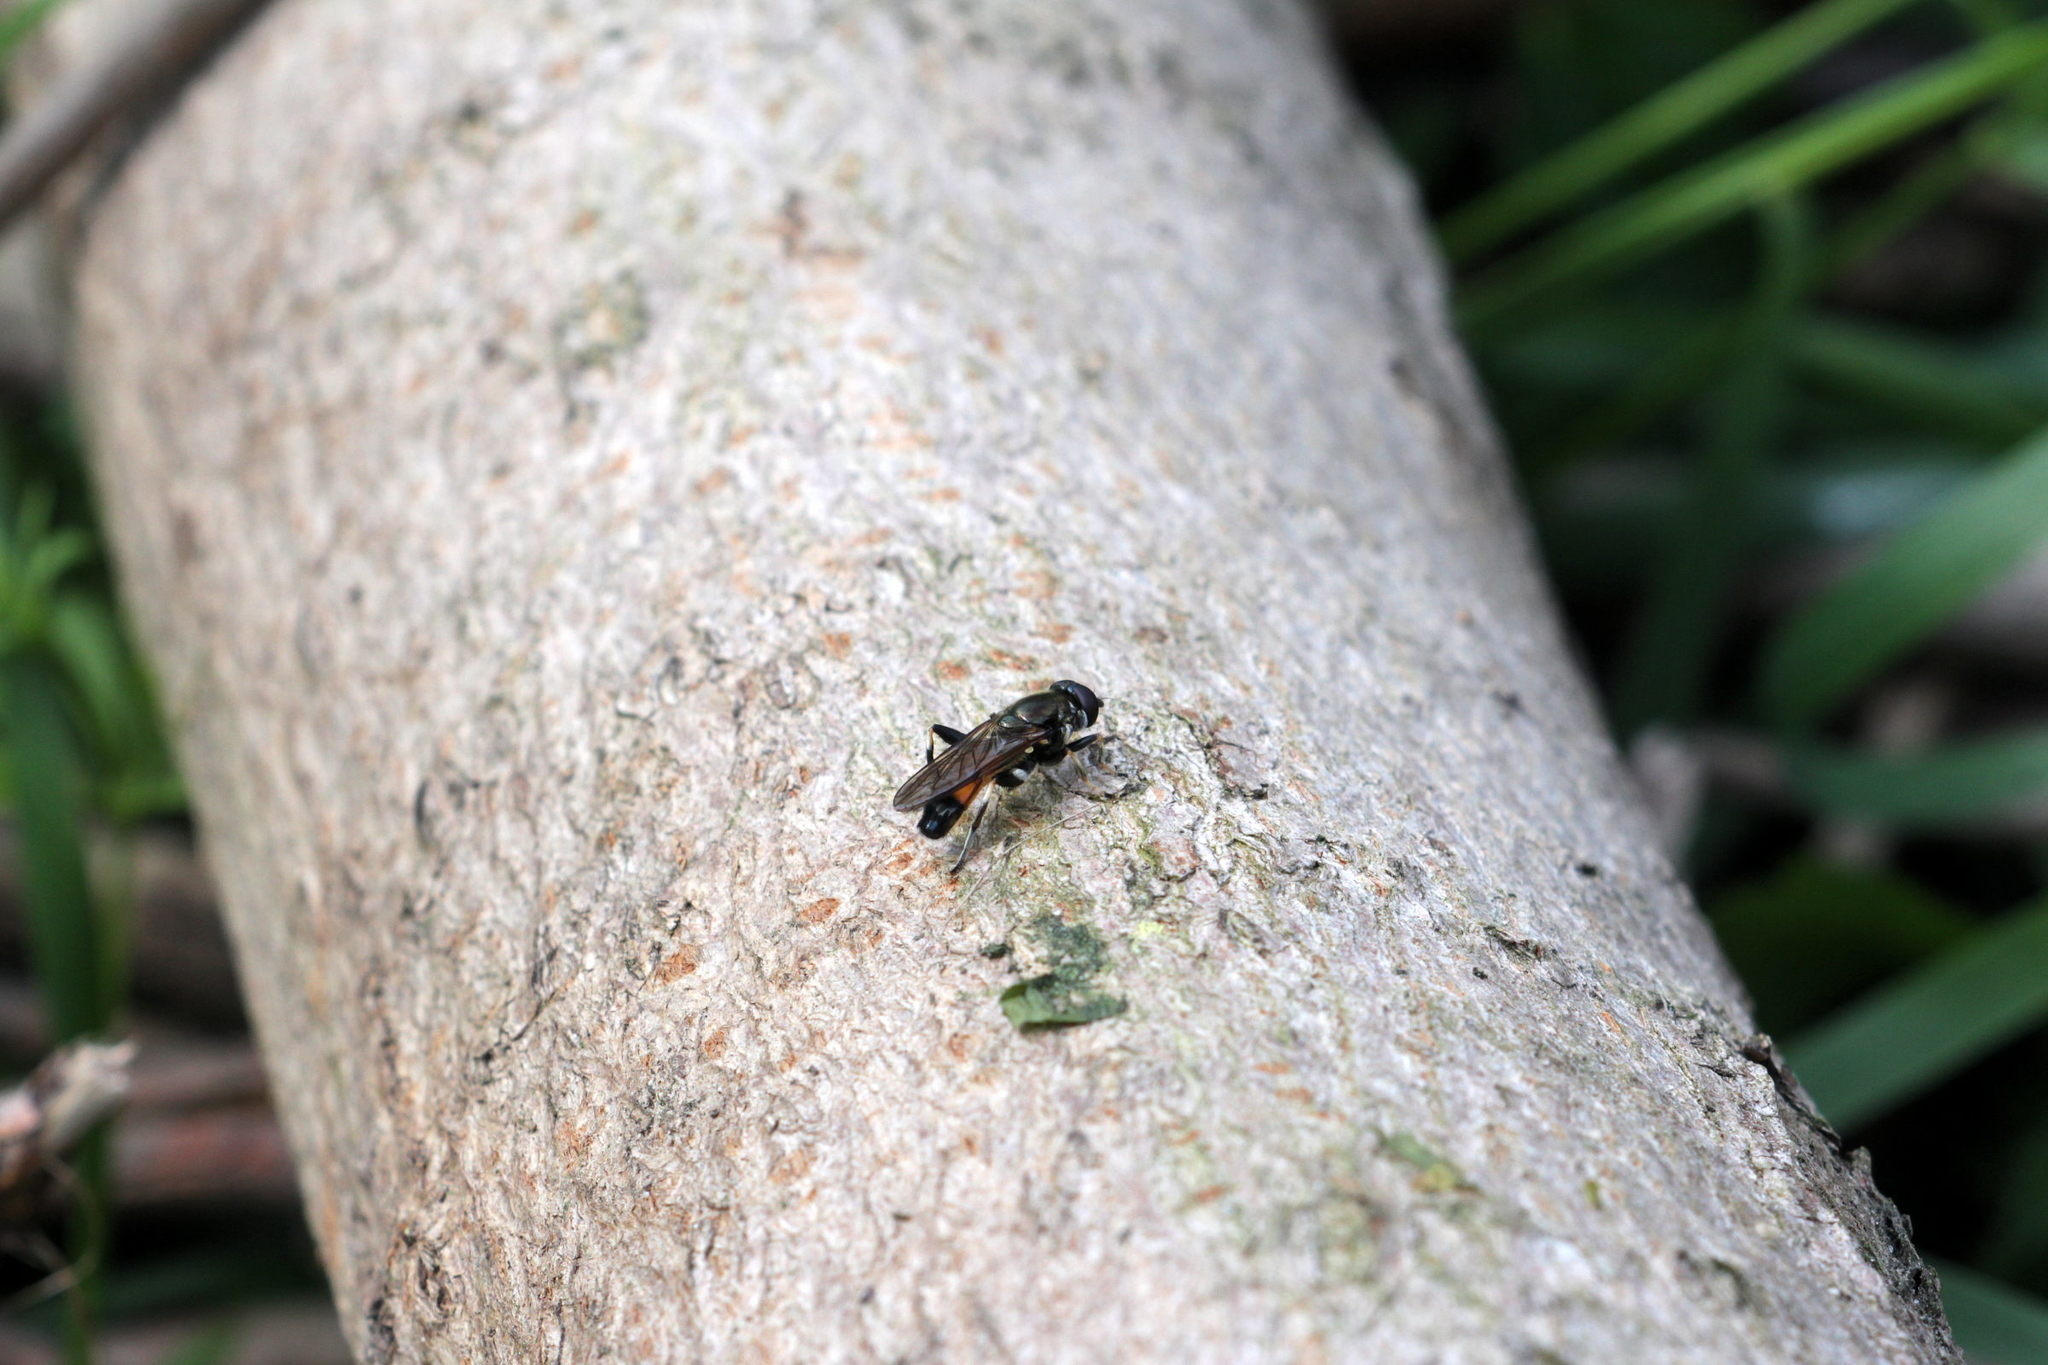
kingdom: Animalia
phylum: Arthropoda
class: Insecta
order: Diptera
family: Syrphidae
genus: Xylota
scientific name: Xylota segnis
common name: Brown-toed forest fly
